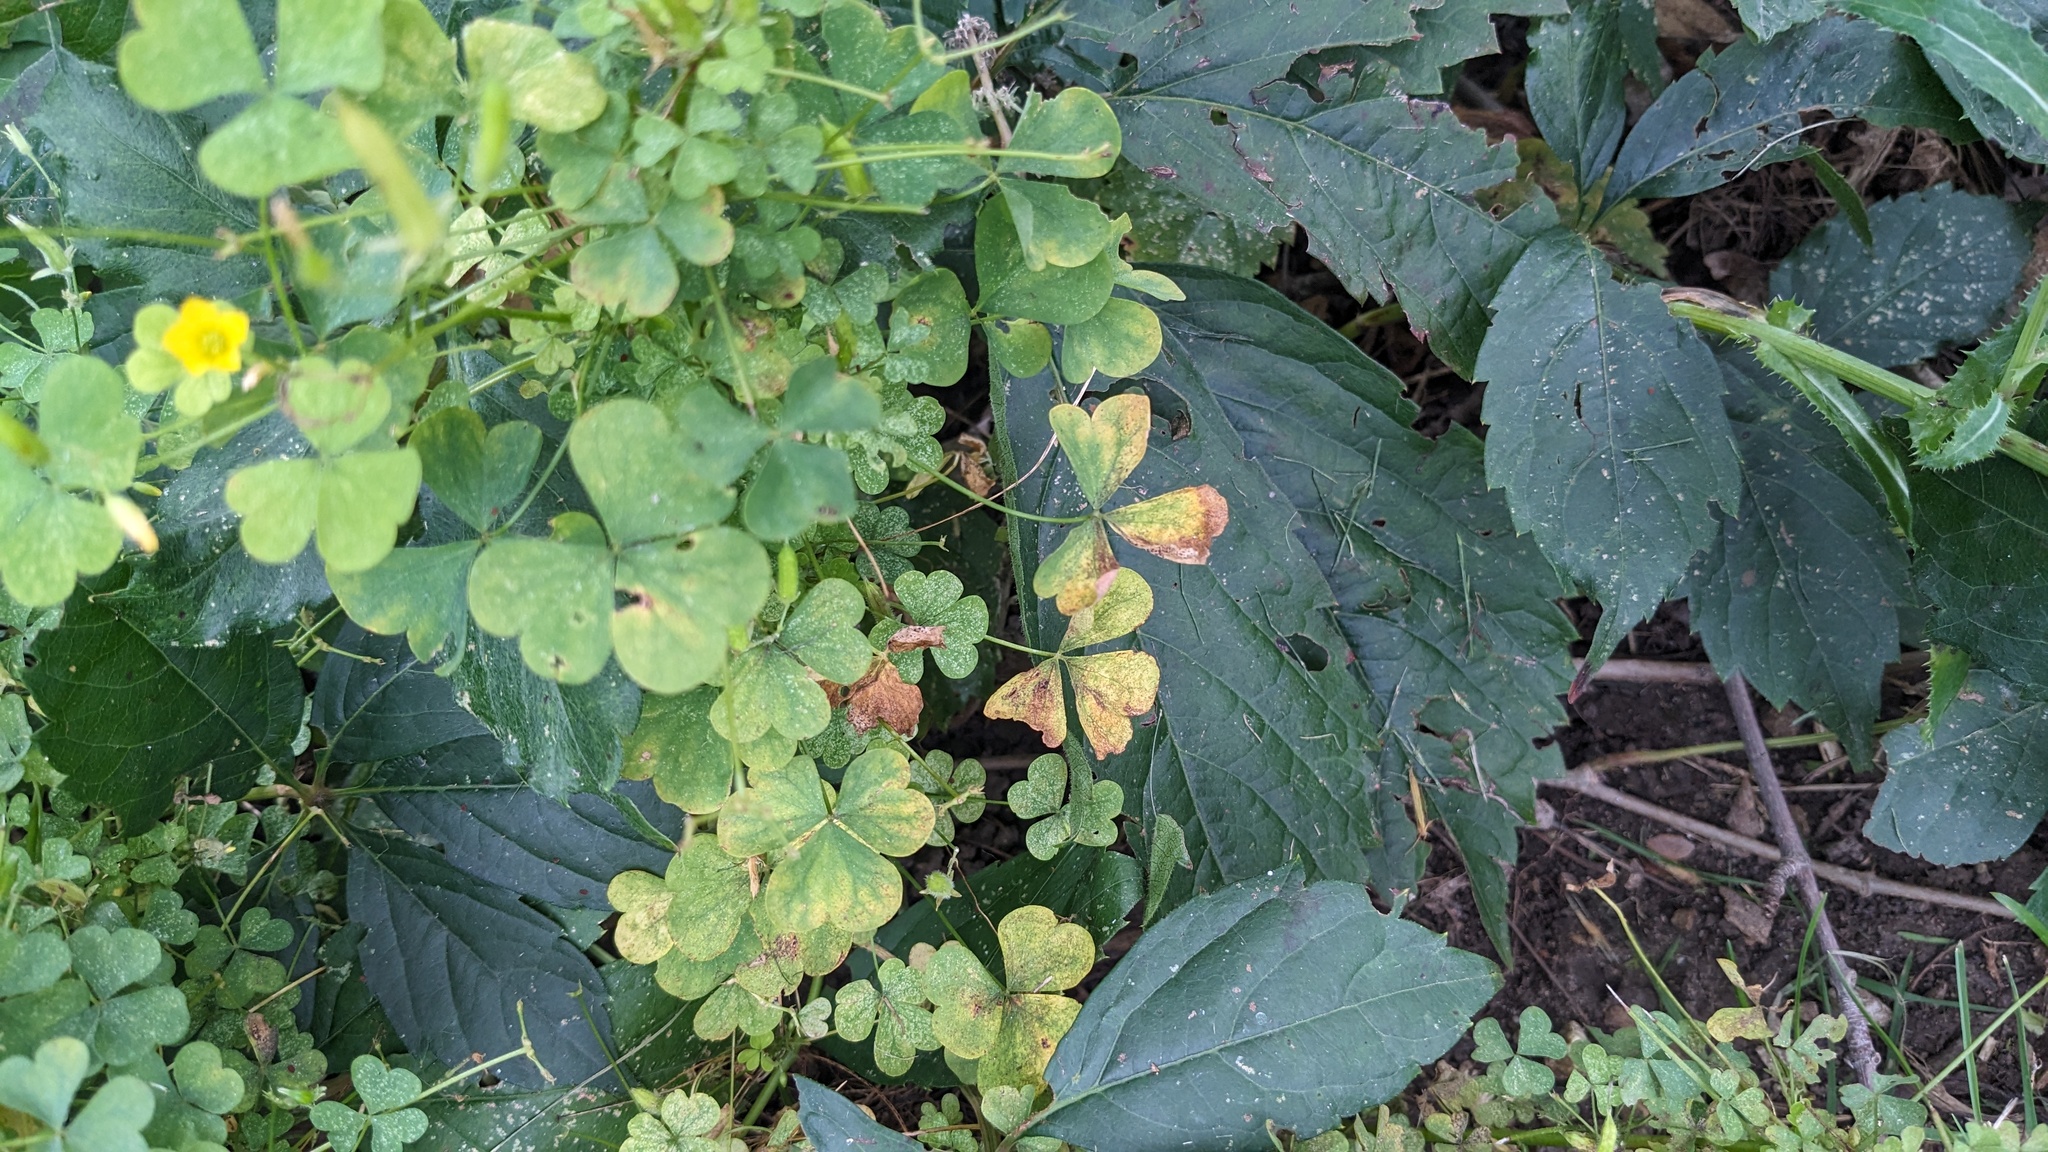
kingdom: Plantae
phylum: Tracheophyta
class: Magnoliopsida
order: Oxalidales
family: Oxalidaceae
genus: Oxalis
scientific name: Oxalis stricta
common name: Upright yellow-sorrel
